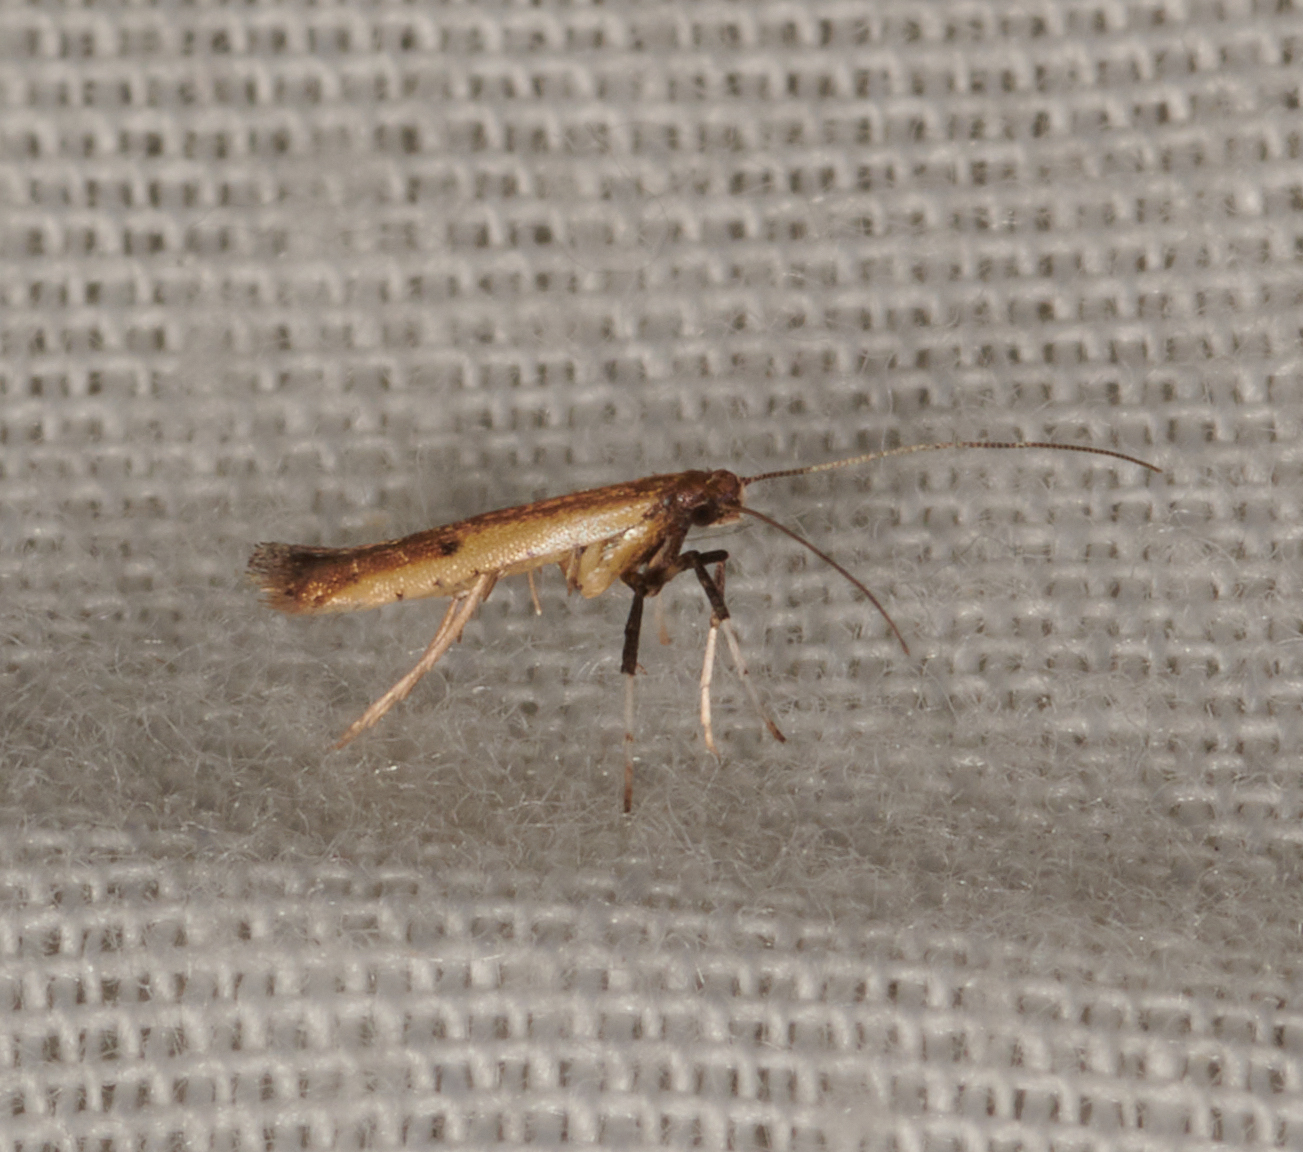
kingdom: Animalia
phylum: Arthropoda
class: Insecta
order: Lepidoptera
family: Gracillariidae
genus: Caloptilia
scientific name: Caloptilia violacella
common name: Tick-trefoil caloptilia moth
